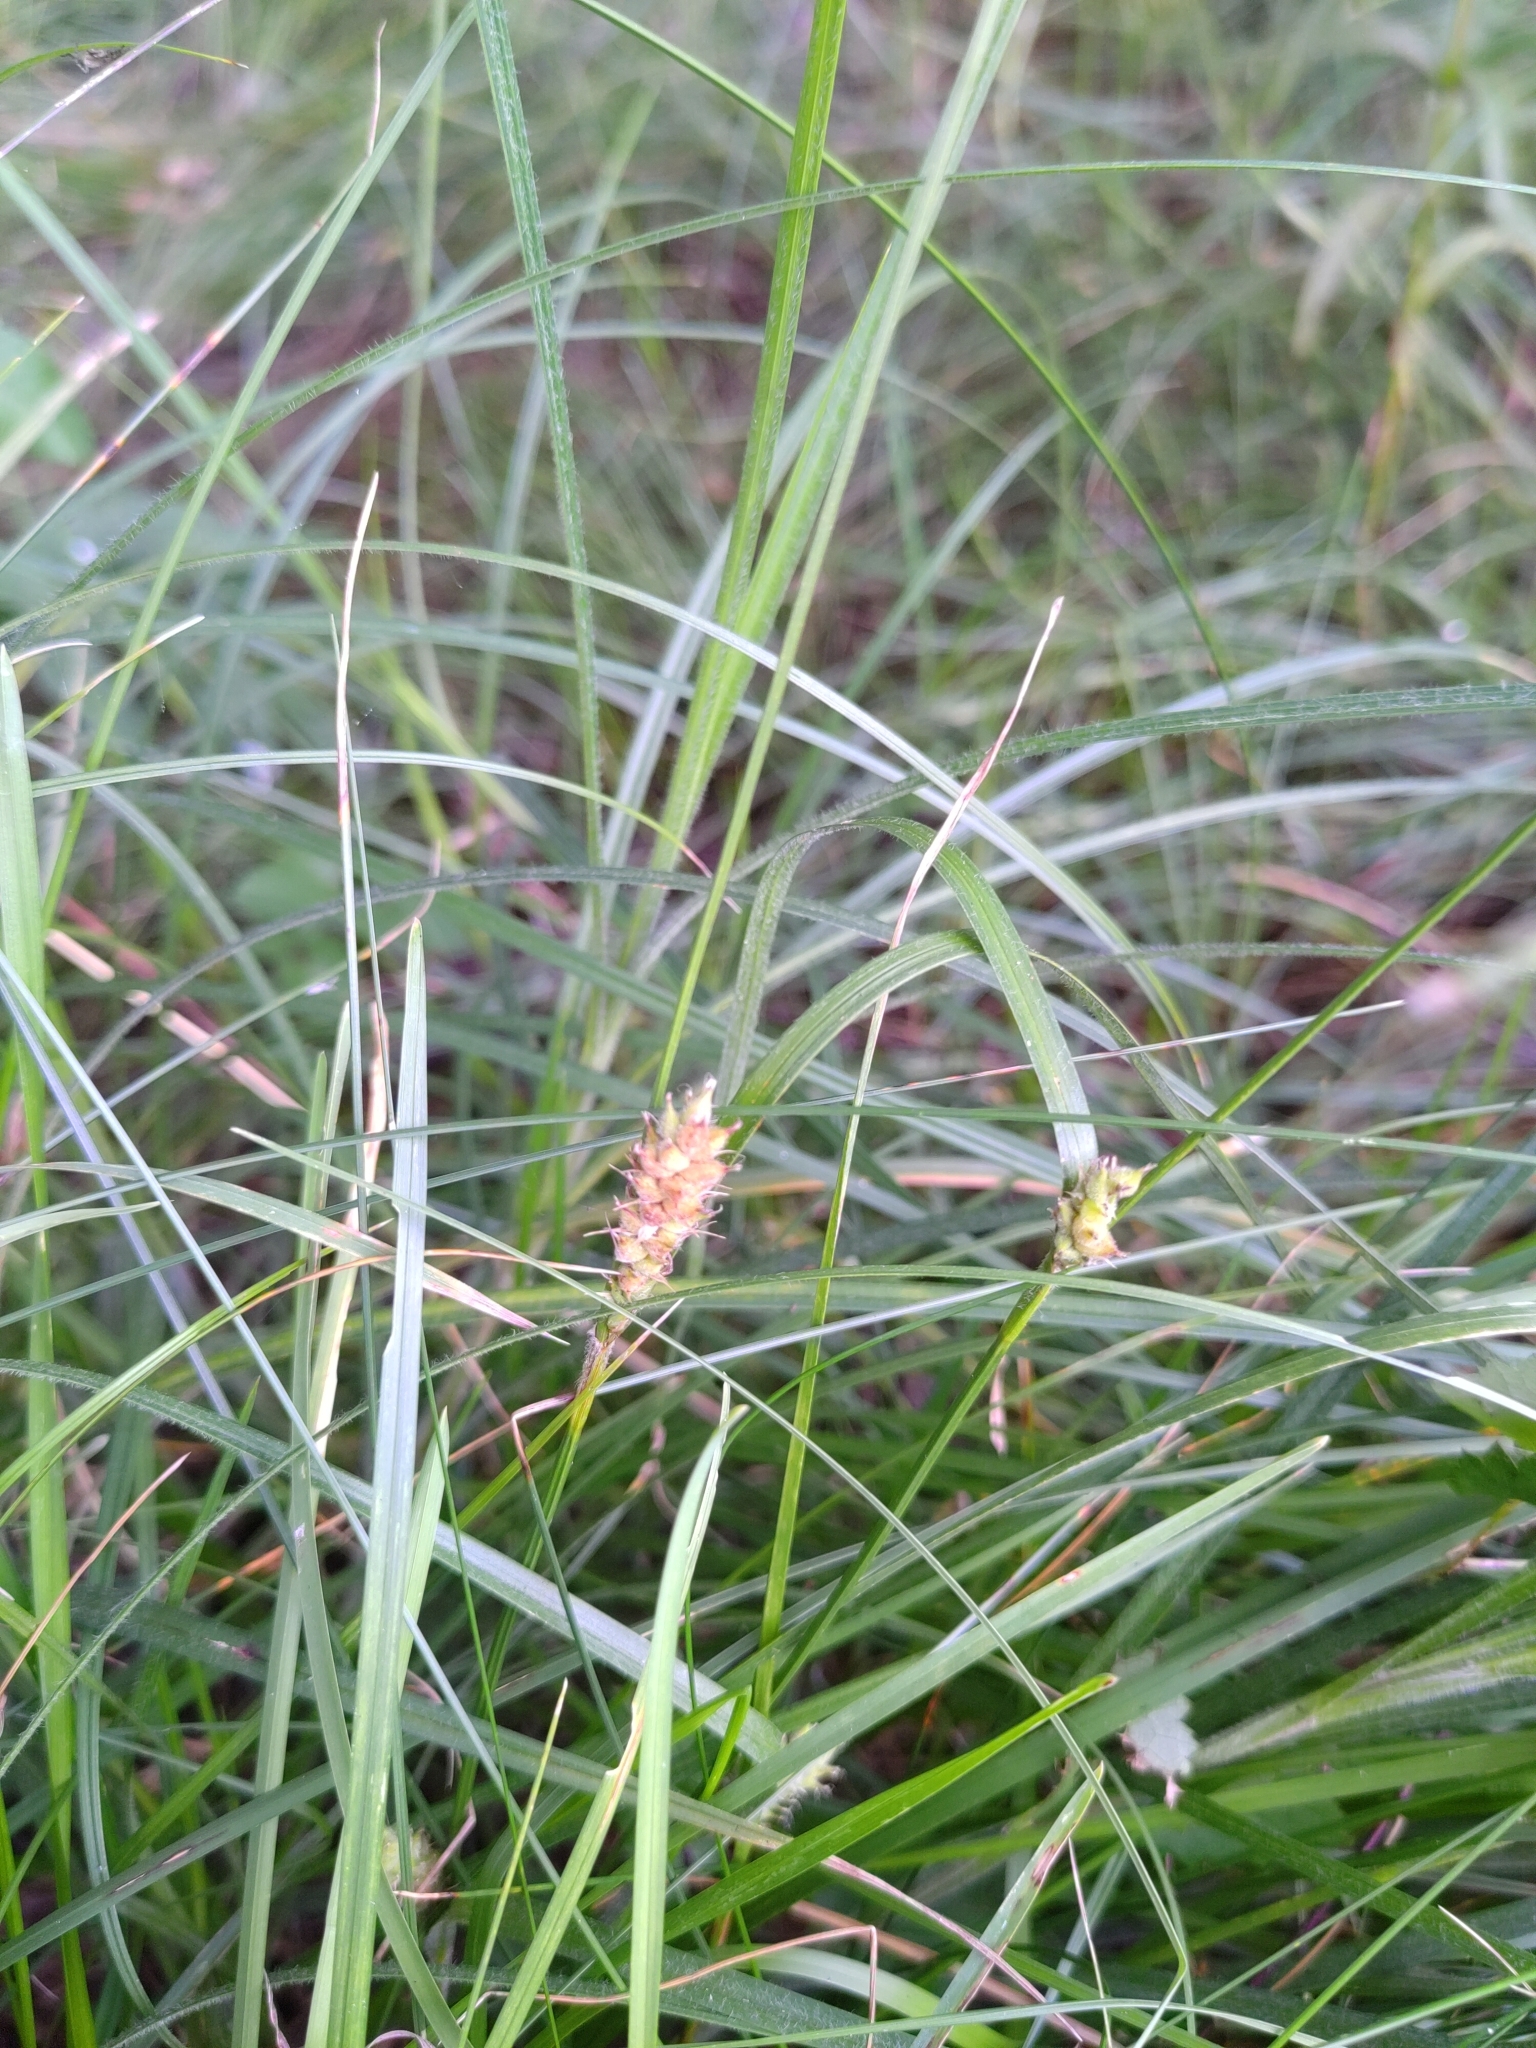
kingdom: Plantae
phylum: Tracheophyta
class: Liliopsida
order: Poales
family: Cyperaceae
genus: Carex
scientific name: Carex hirta
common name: Hairy sedge
